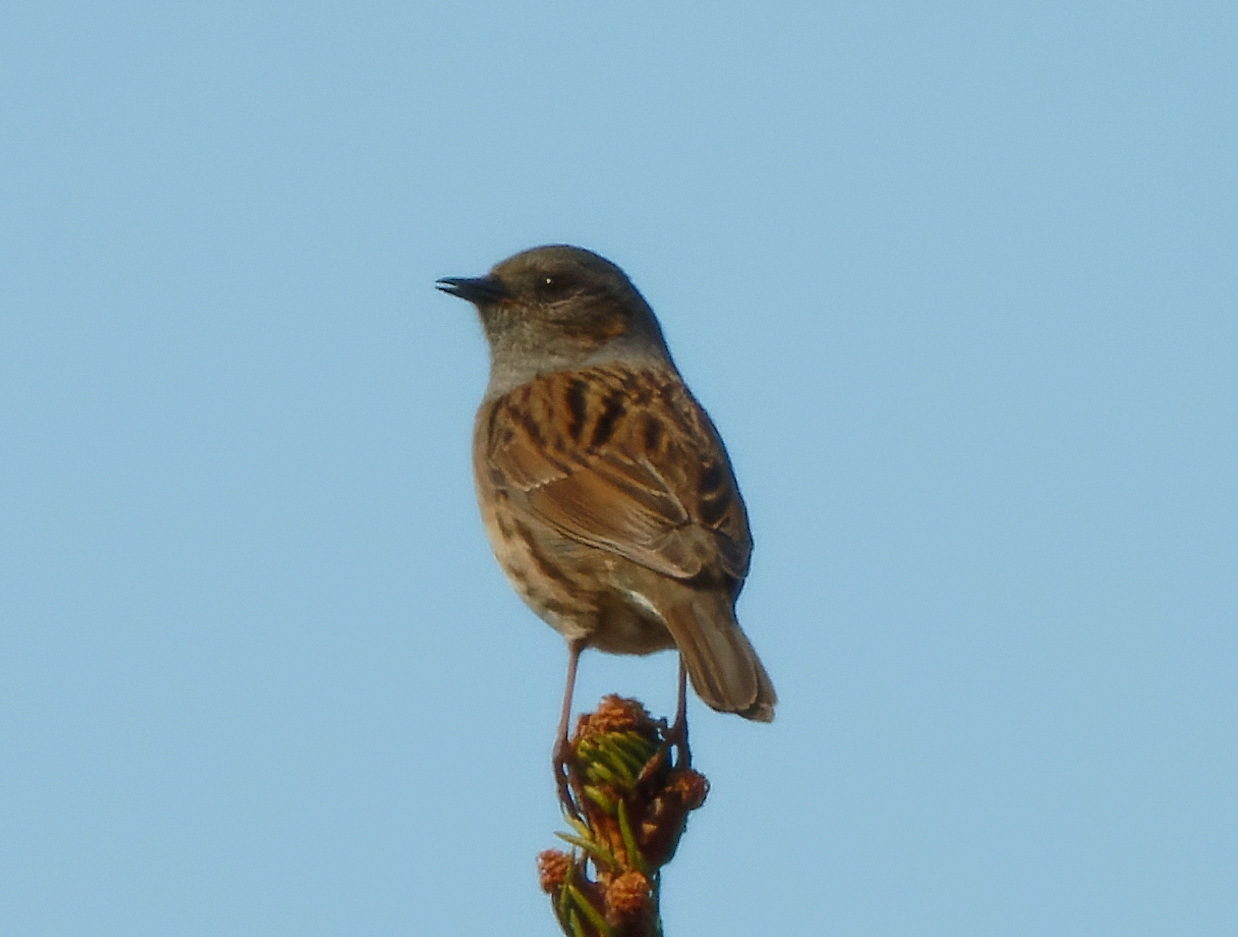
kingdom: Animalia
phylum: Chordata
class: Aves
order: Passeriformes
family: Prunellidae
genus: Prunella
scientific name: Prunella modularis
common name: Dunnock
